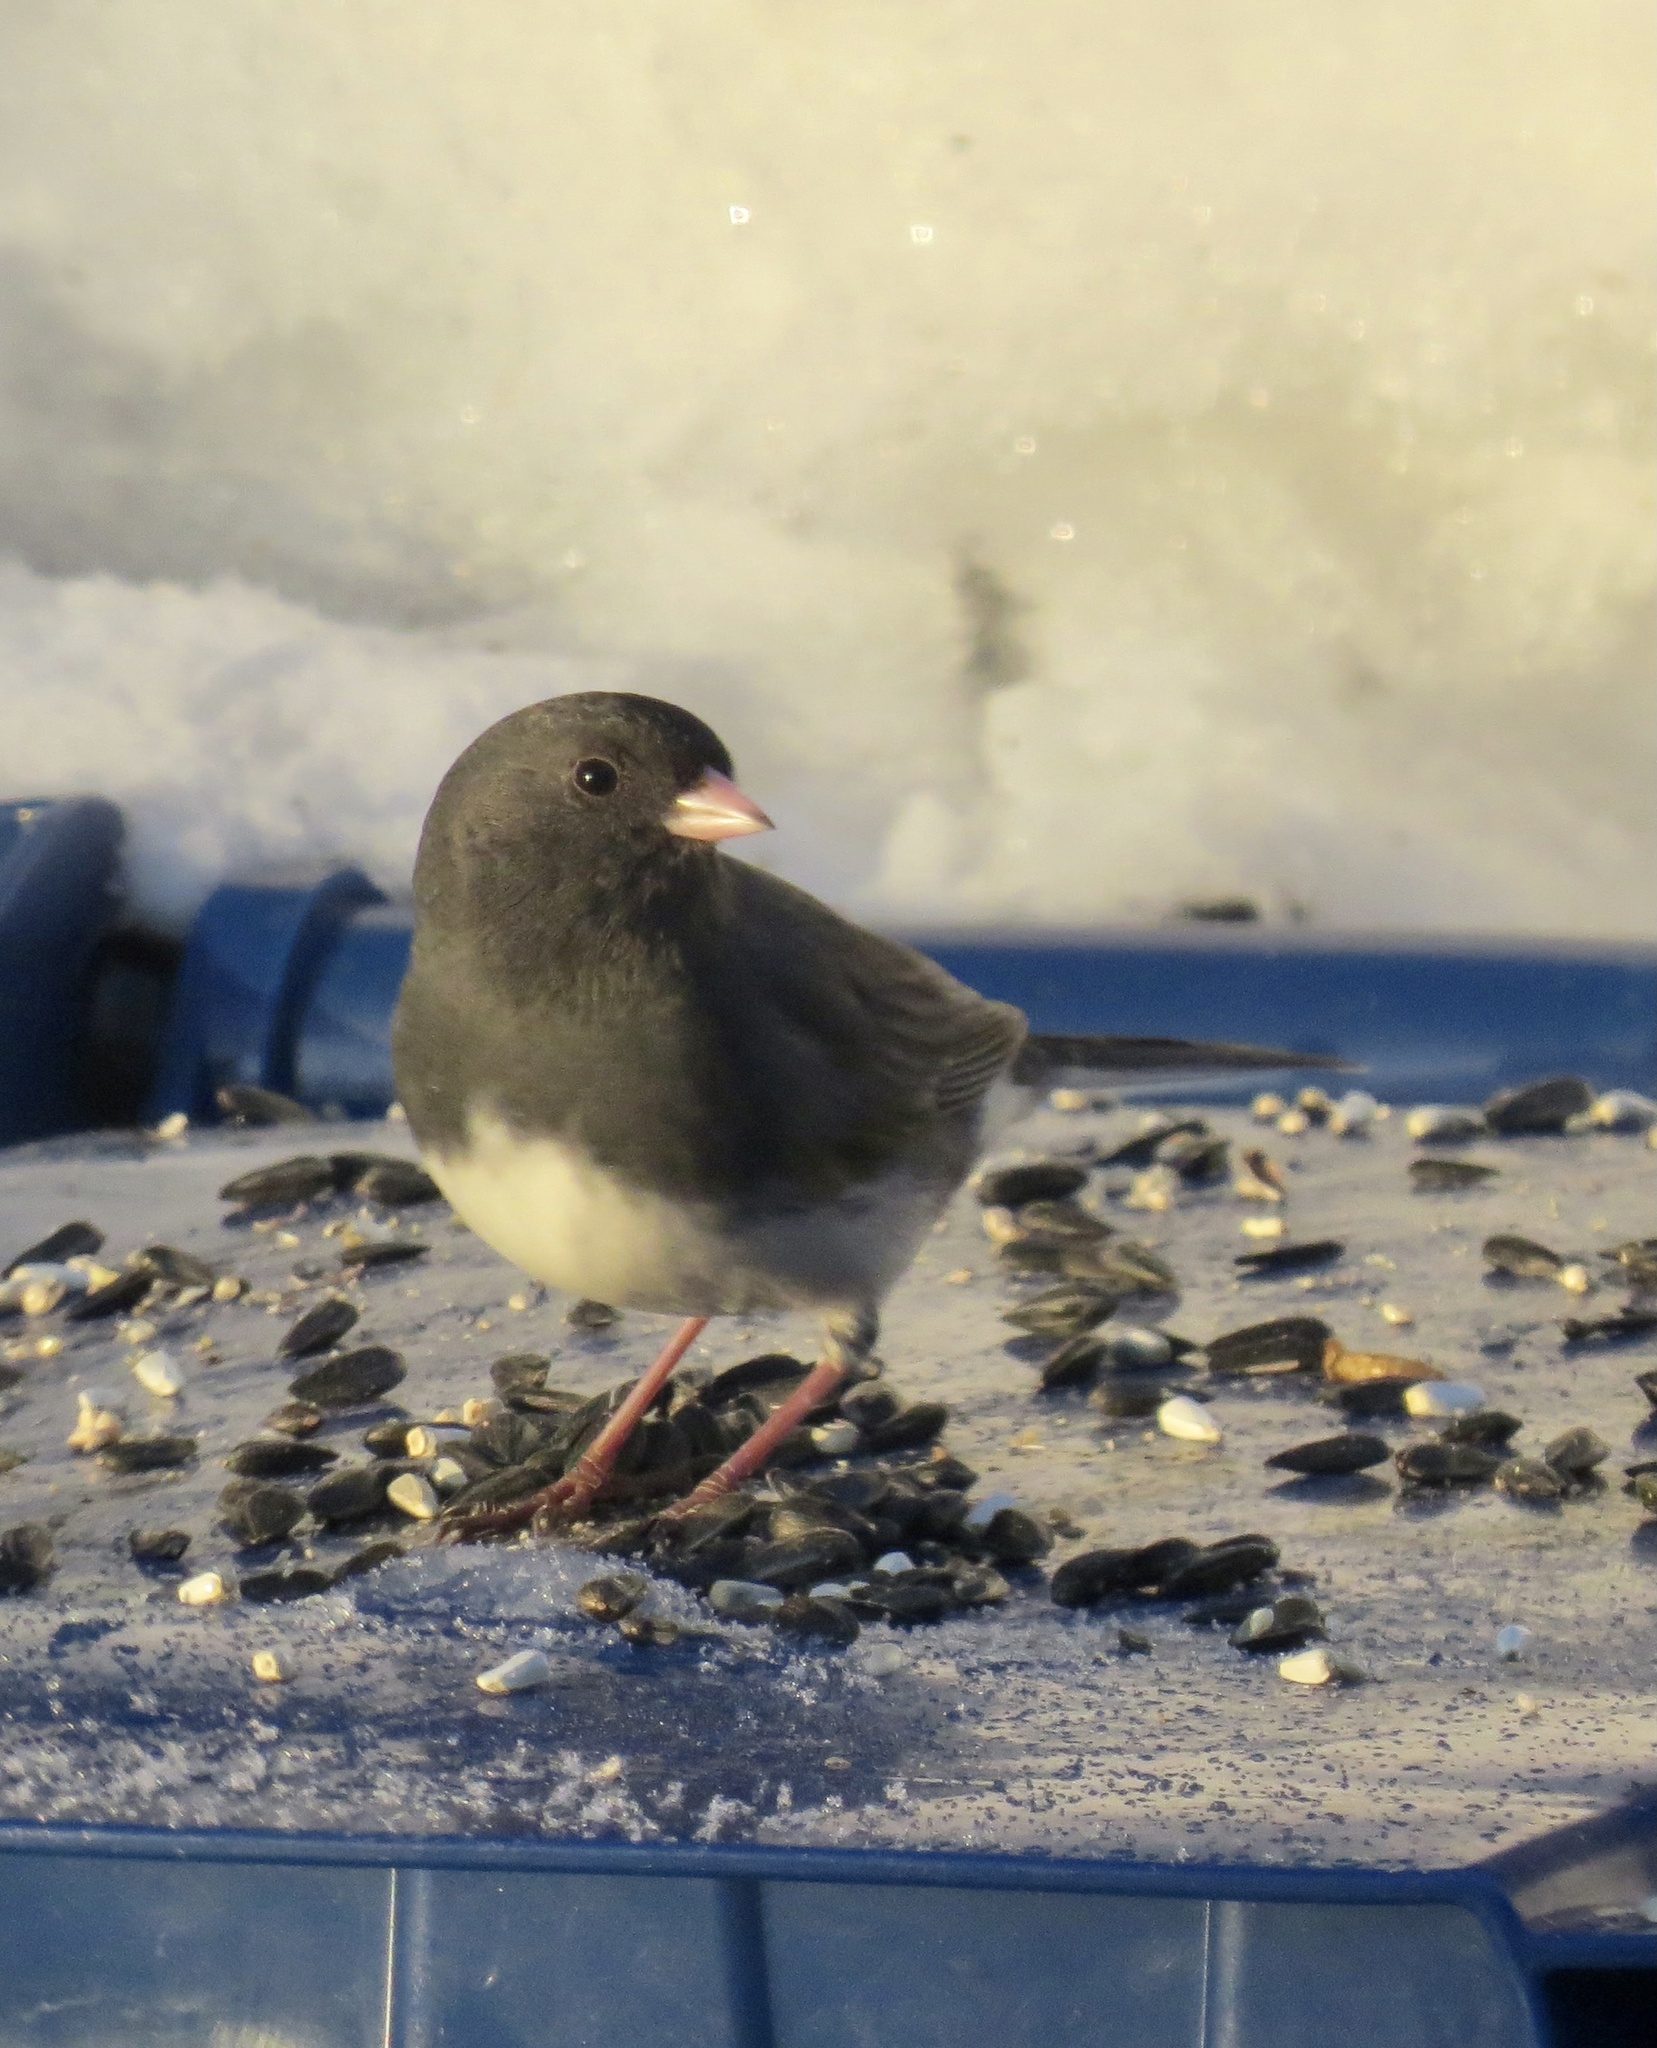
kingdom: Animalia
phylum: Chordata
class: Aves
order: Passeriformes
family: Passerellidae
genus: Junco
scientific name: Junco hyemalis
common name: Dark-eyed junco
